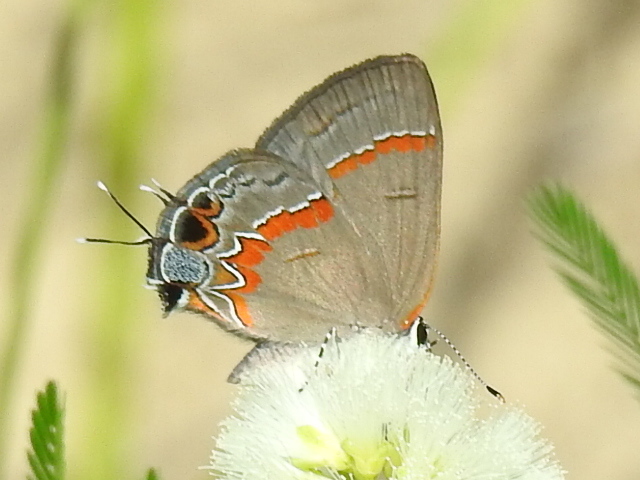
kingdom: Animalia
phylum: Arthropoda
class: Insecta
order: Lepidoptera
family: Lycaenidae
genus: Calycopis
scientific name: Calycopis cecrops
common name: Red-banded hairstreak
